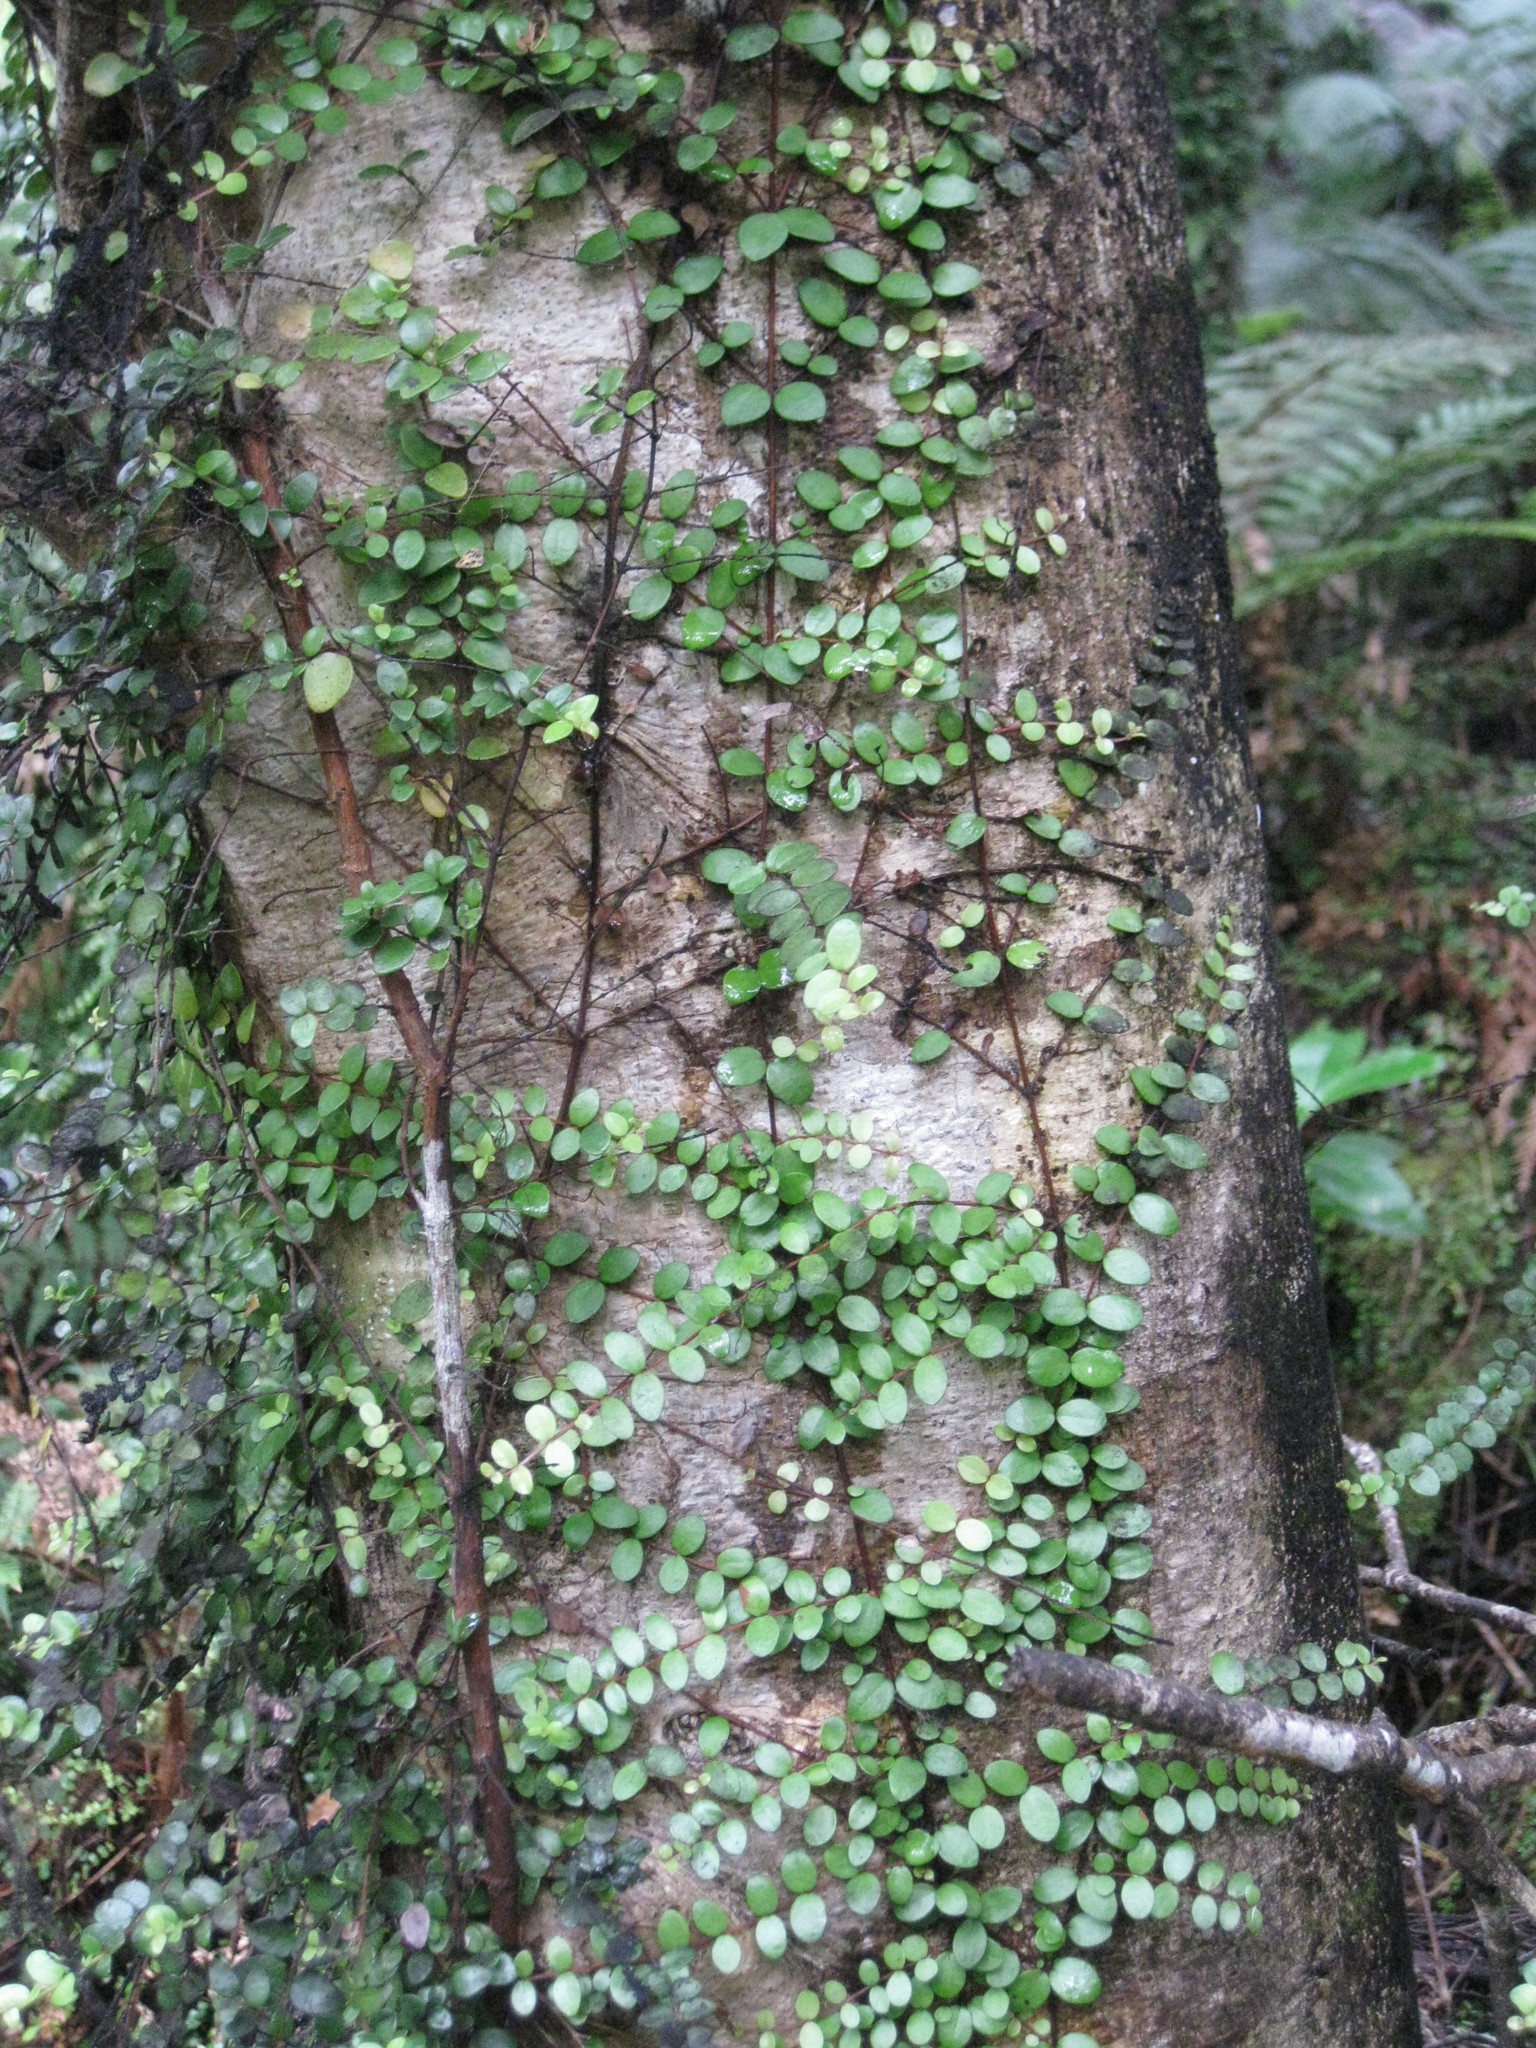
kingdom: Plantae
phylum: Tracheophyta
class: Magnoliopsida
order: Myrtales
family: Myrtaceae
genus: Metrosideros
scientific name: Metrosideros diffusa
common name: Small ratavine
